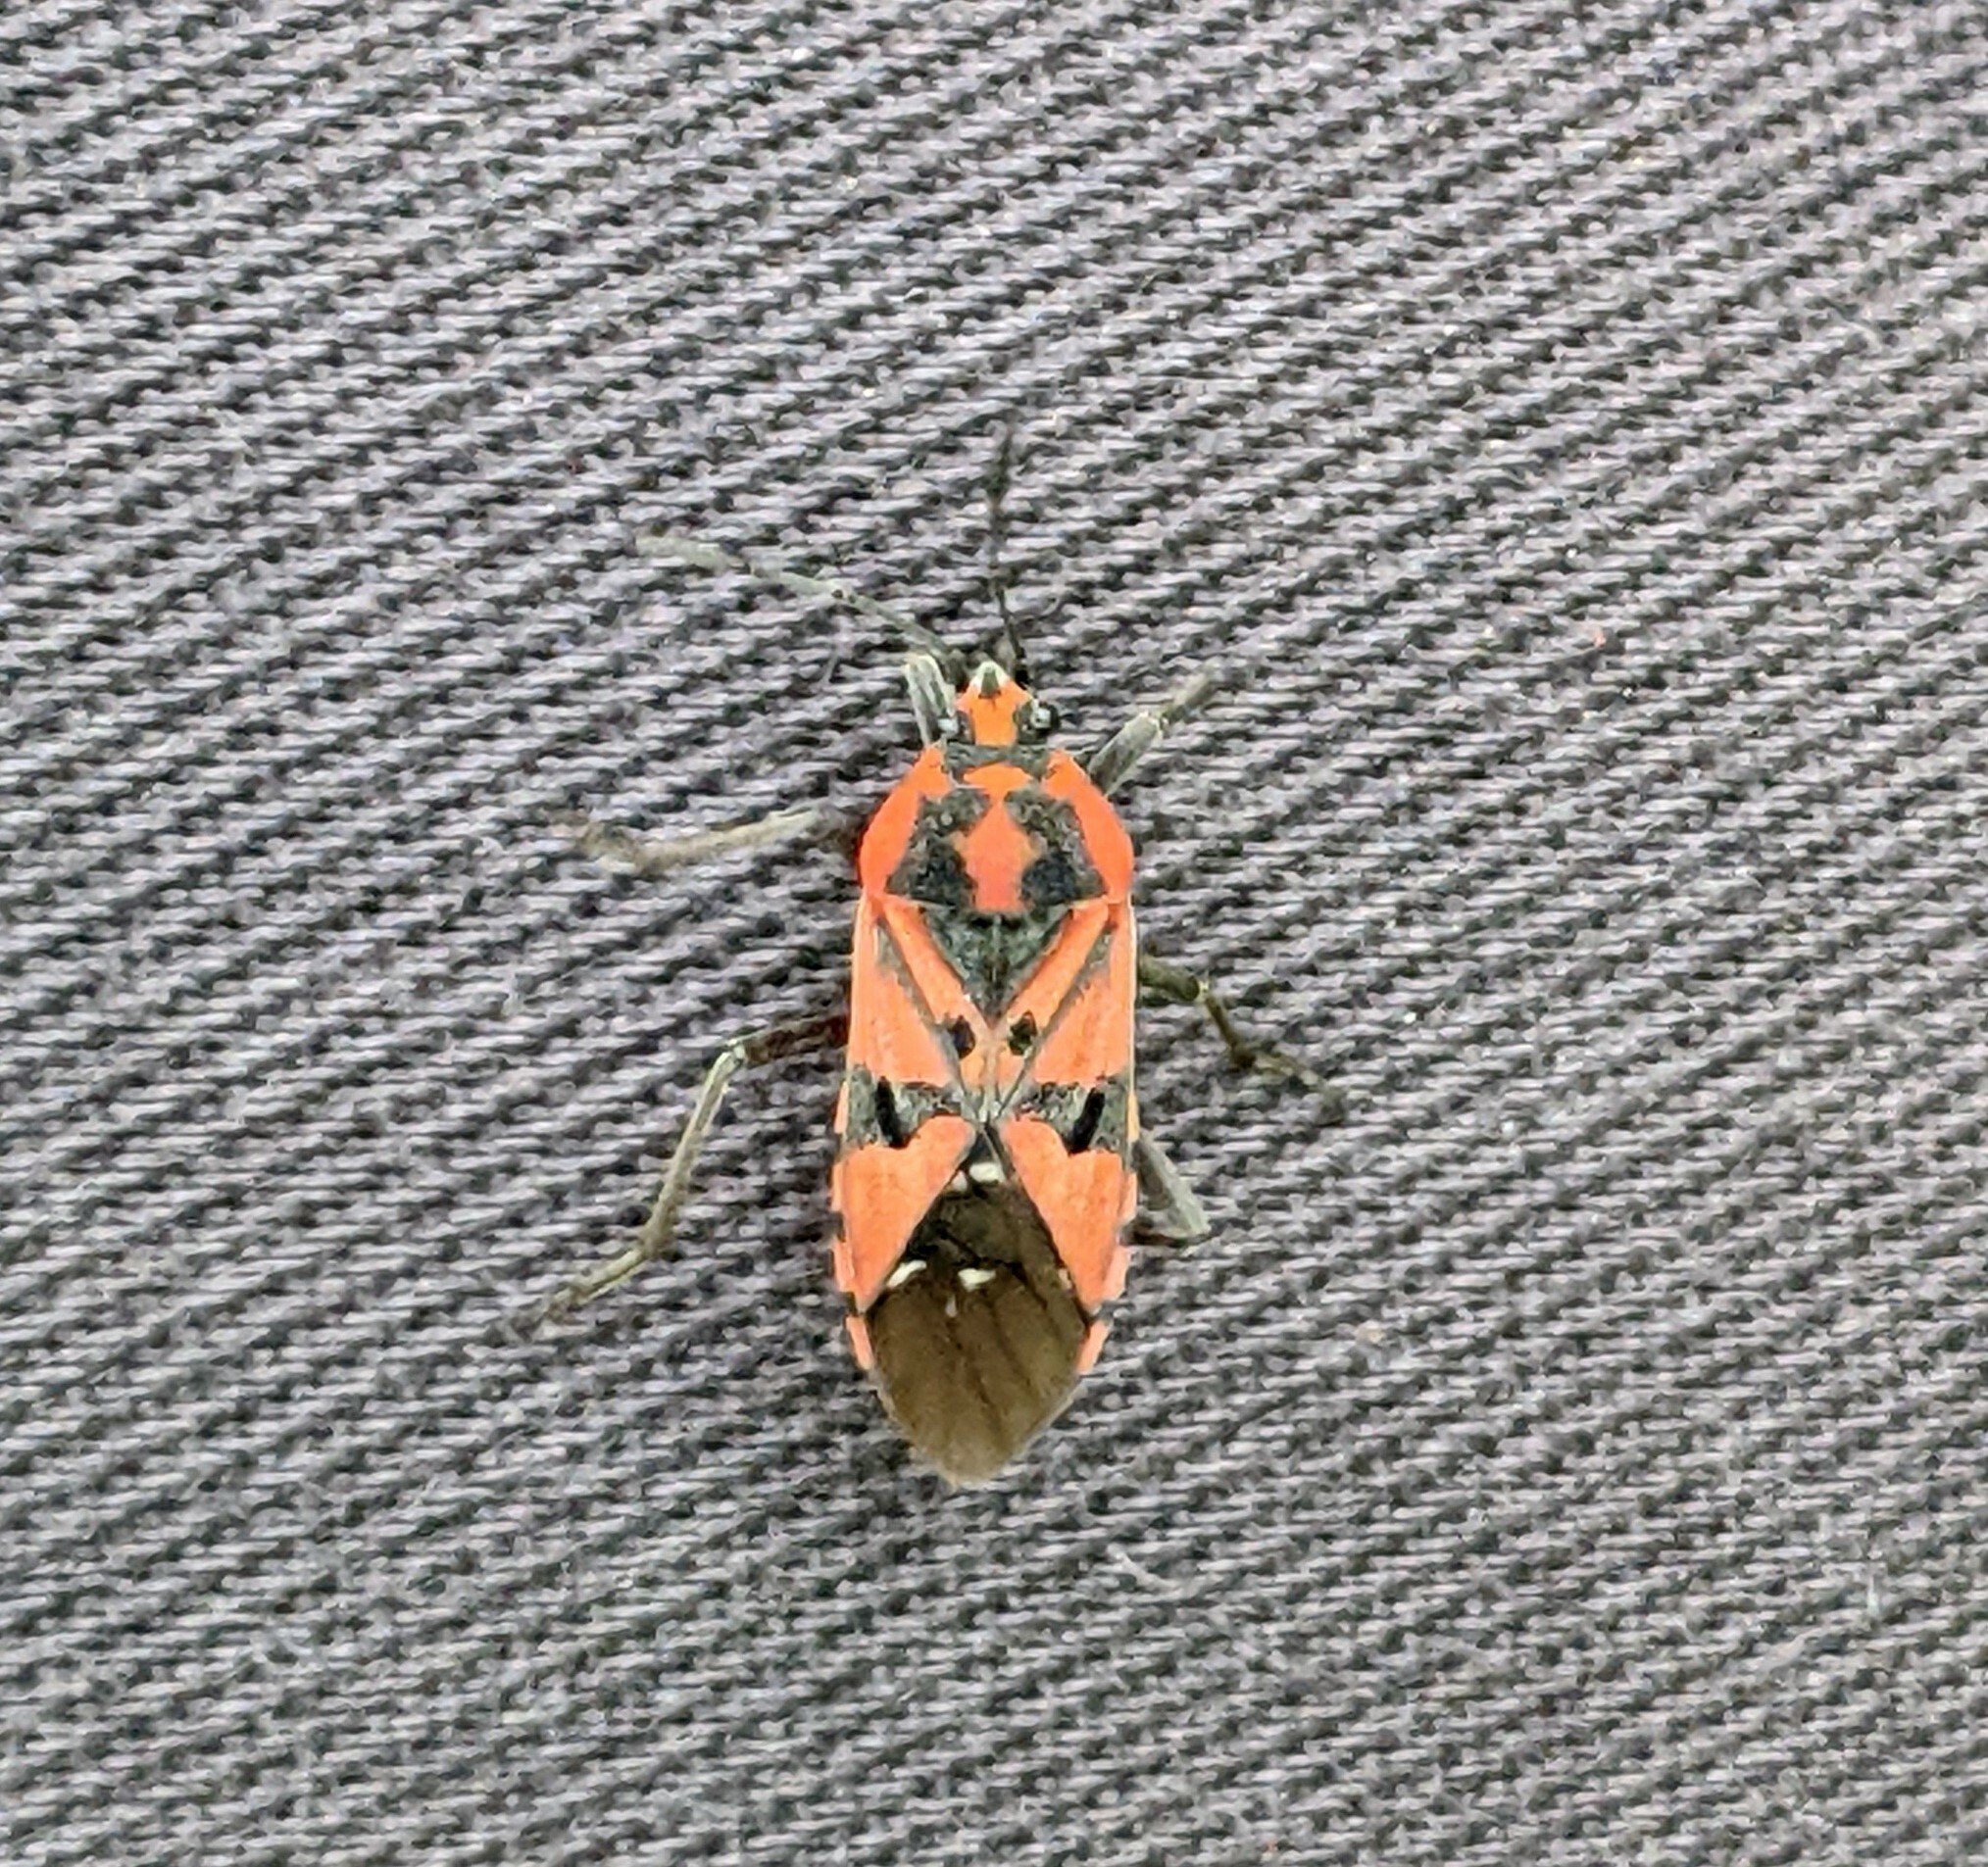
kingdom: Animalia
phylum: Arthropoda
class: Insecta
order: Hemiptera
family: Lygaeidae
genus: Spilostethus
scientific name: Spilostethus pandurus
